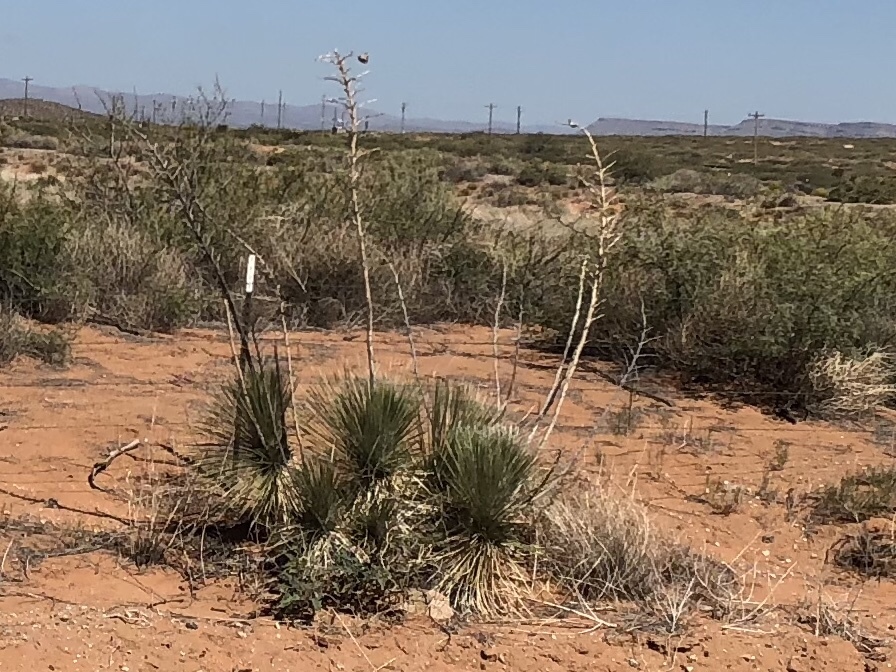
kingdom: Plantae
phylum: Tracheophyta
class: Liliopsida
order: Asparagales
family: Asparagaceae
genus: Yucca
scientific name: Yucca elata
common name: Palmella
